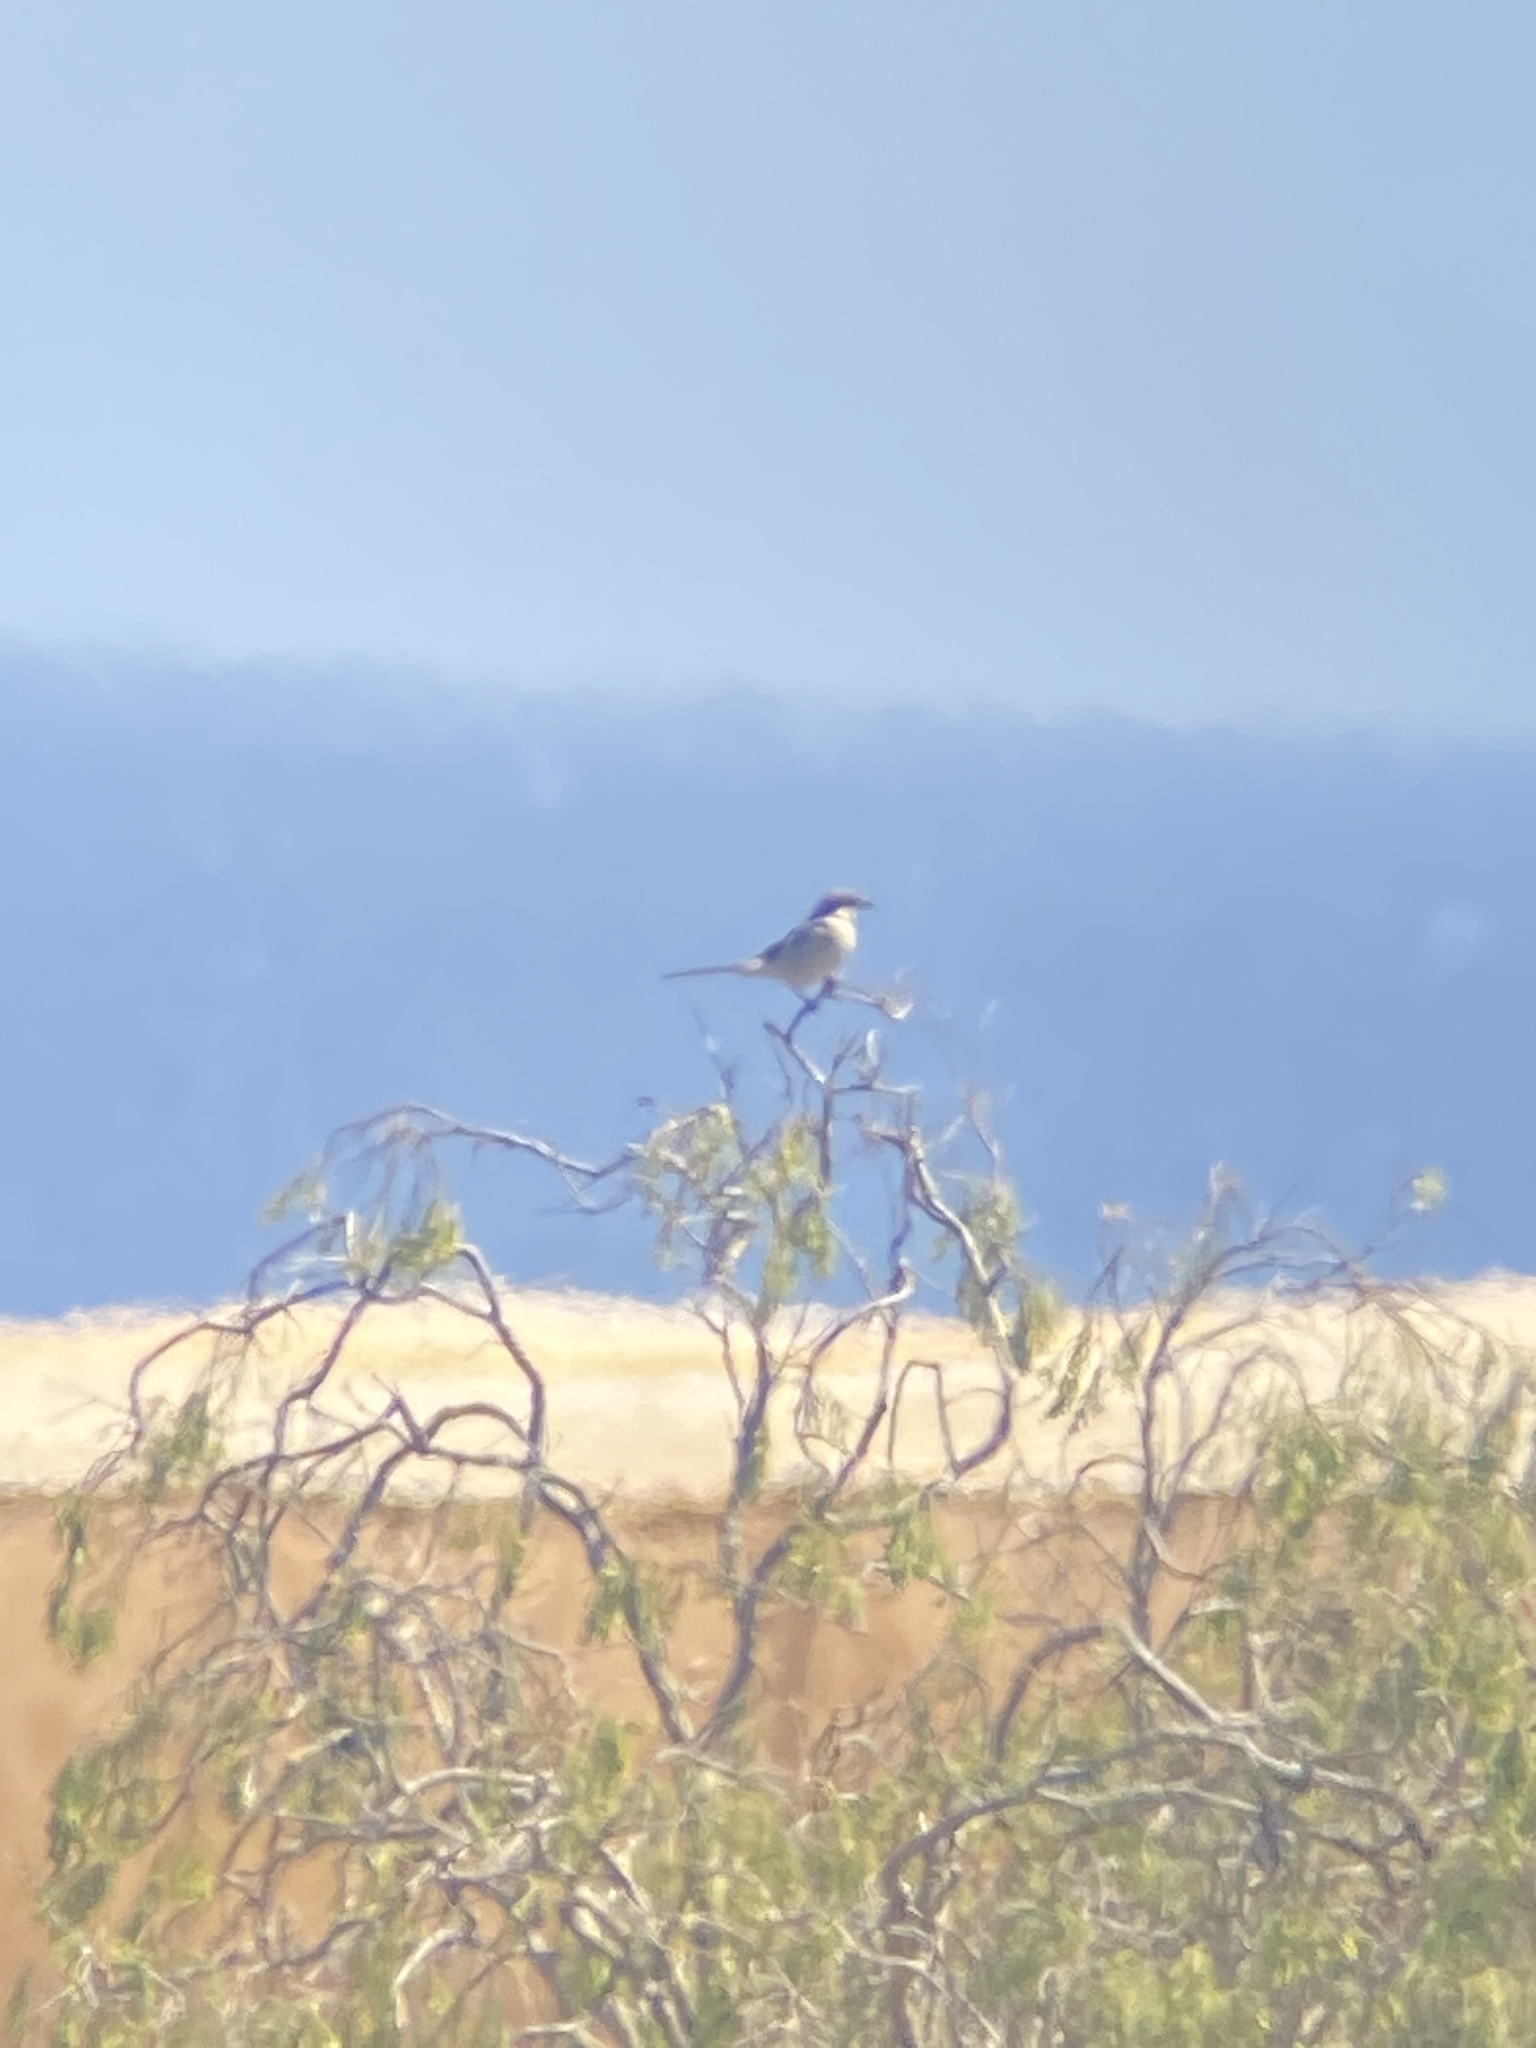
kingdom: Animalia
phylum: Chordata
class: Aves
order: Passeriformes
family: Laniidae
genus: Lanius
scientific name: Lanius excubitor
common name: Great grey shrike
